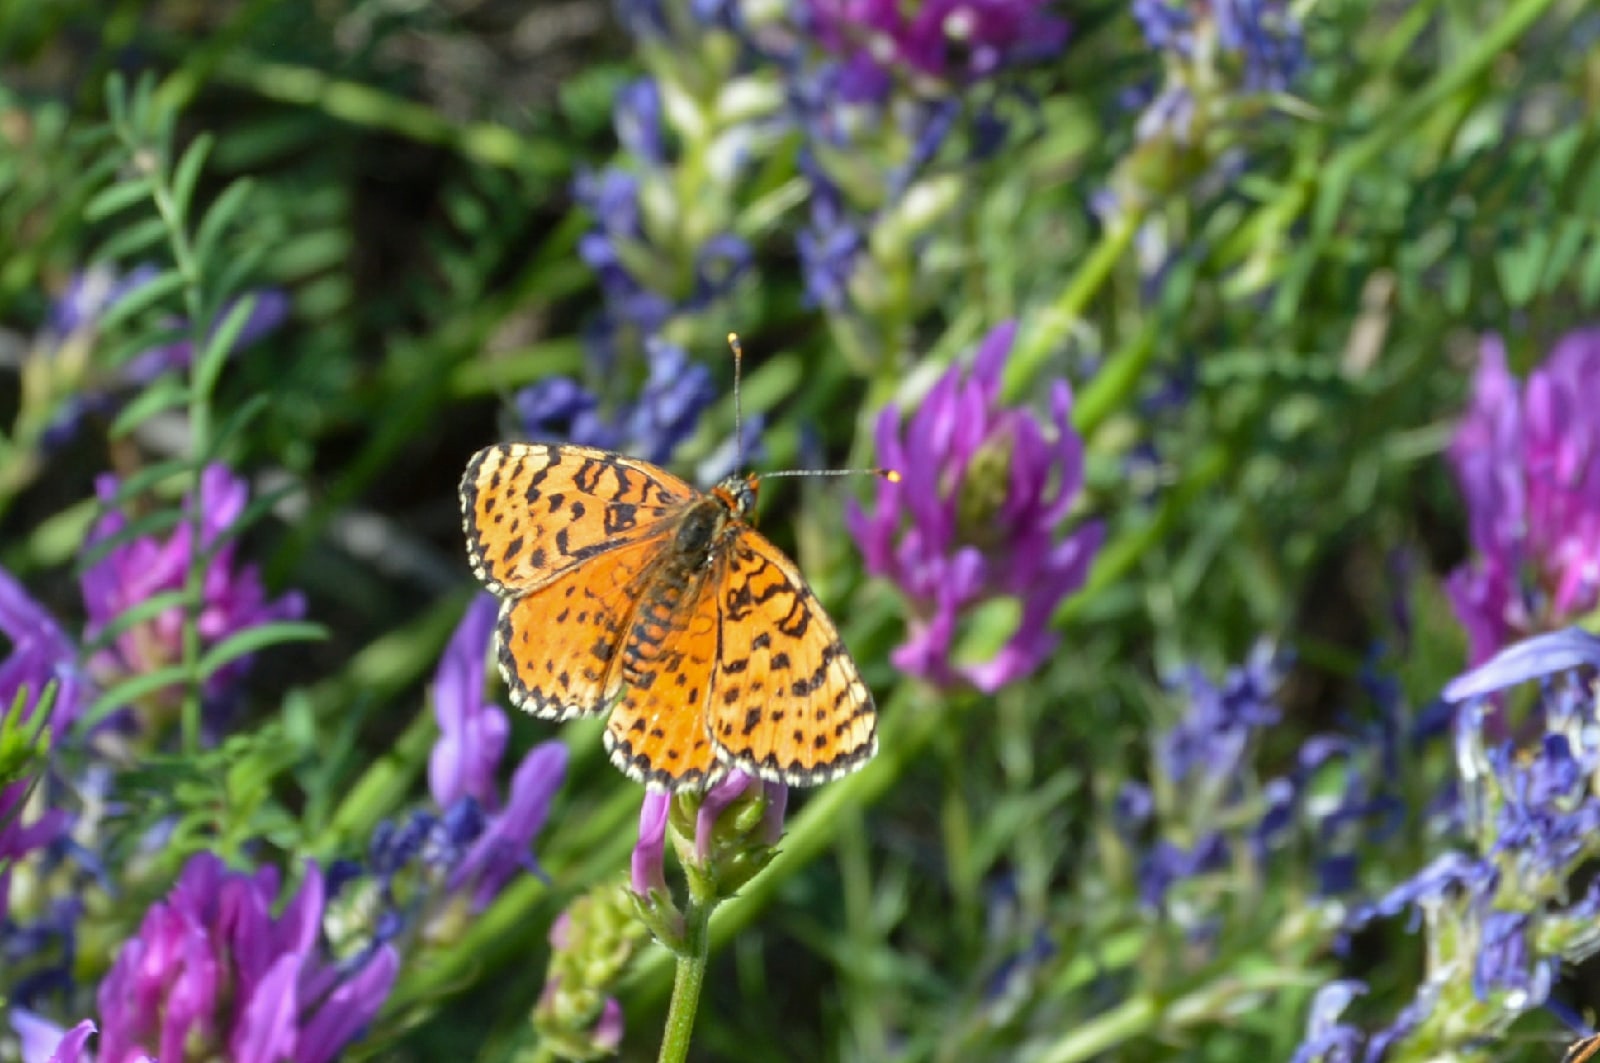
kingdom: Animalia
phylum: Arthropoda
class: Insecta
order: Lepidoptera
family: Nymphalidae
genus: Melitaea
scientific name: Melitaea didyma
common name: Spotted fritillary
